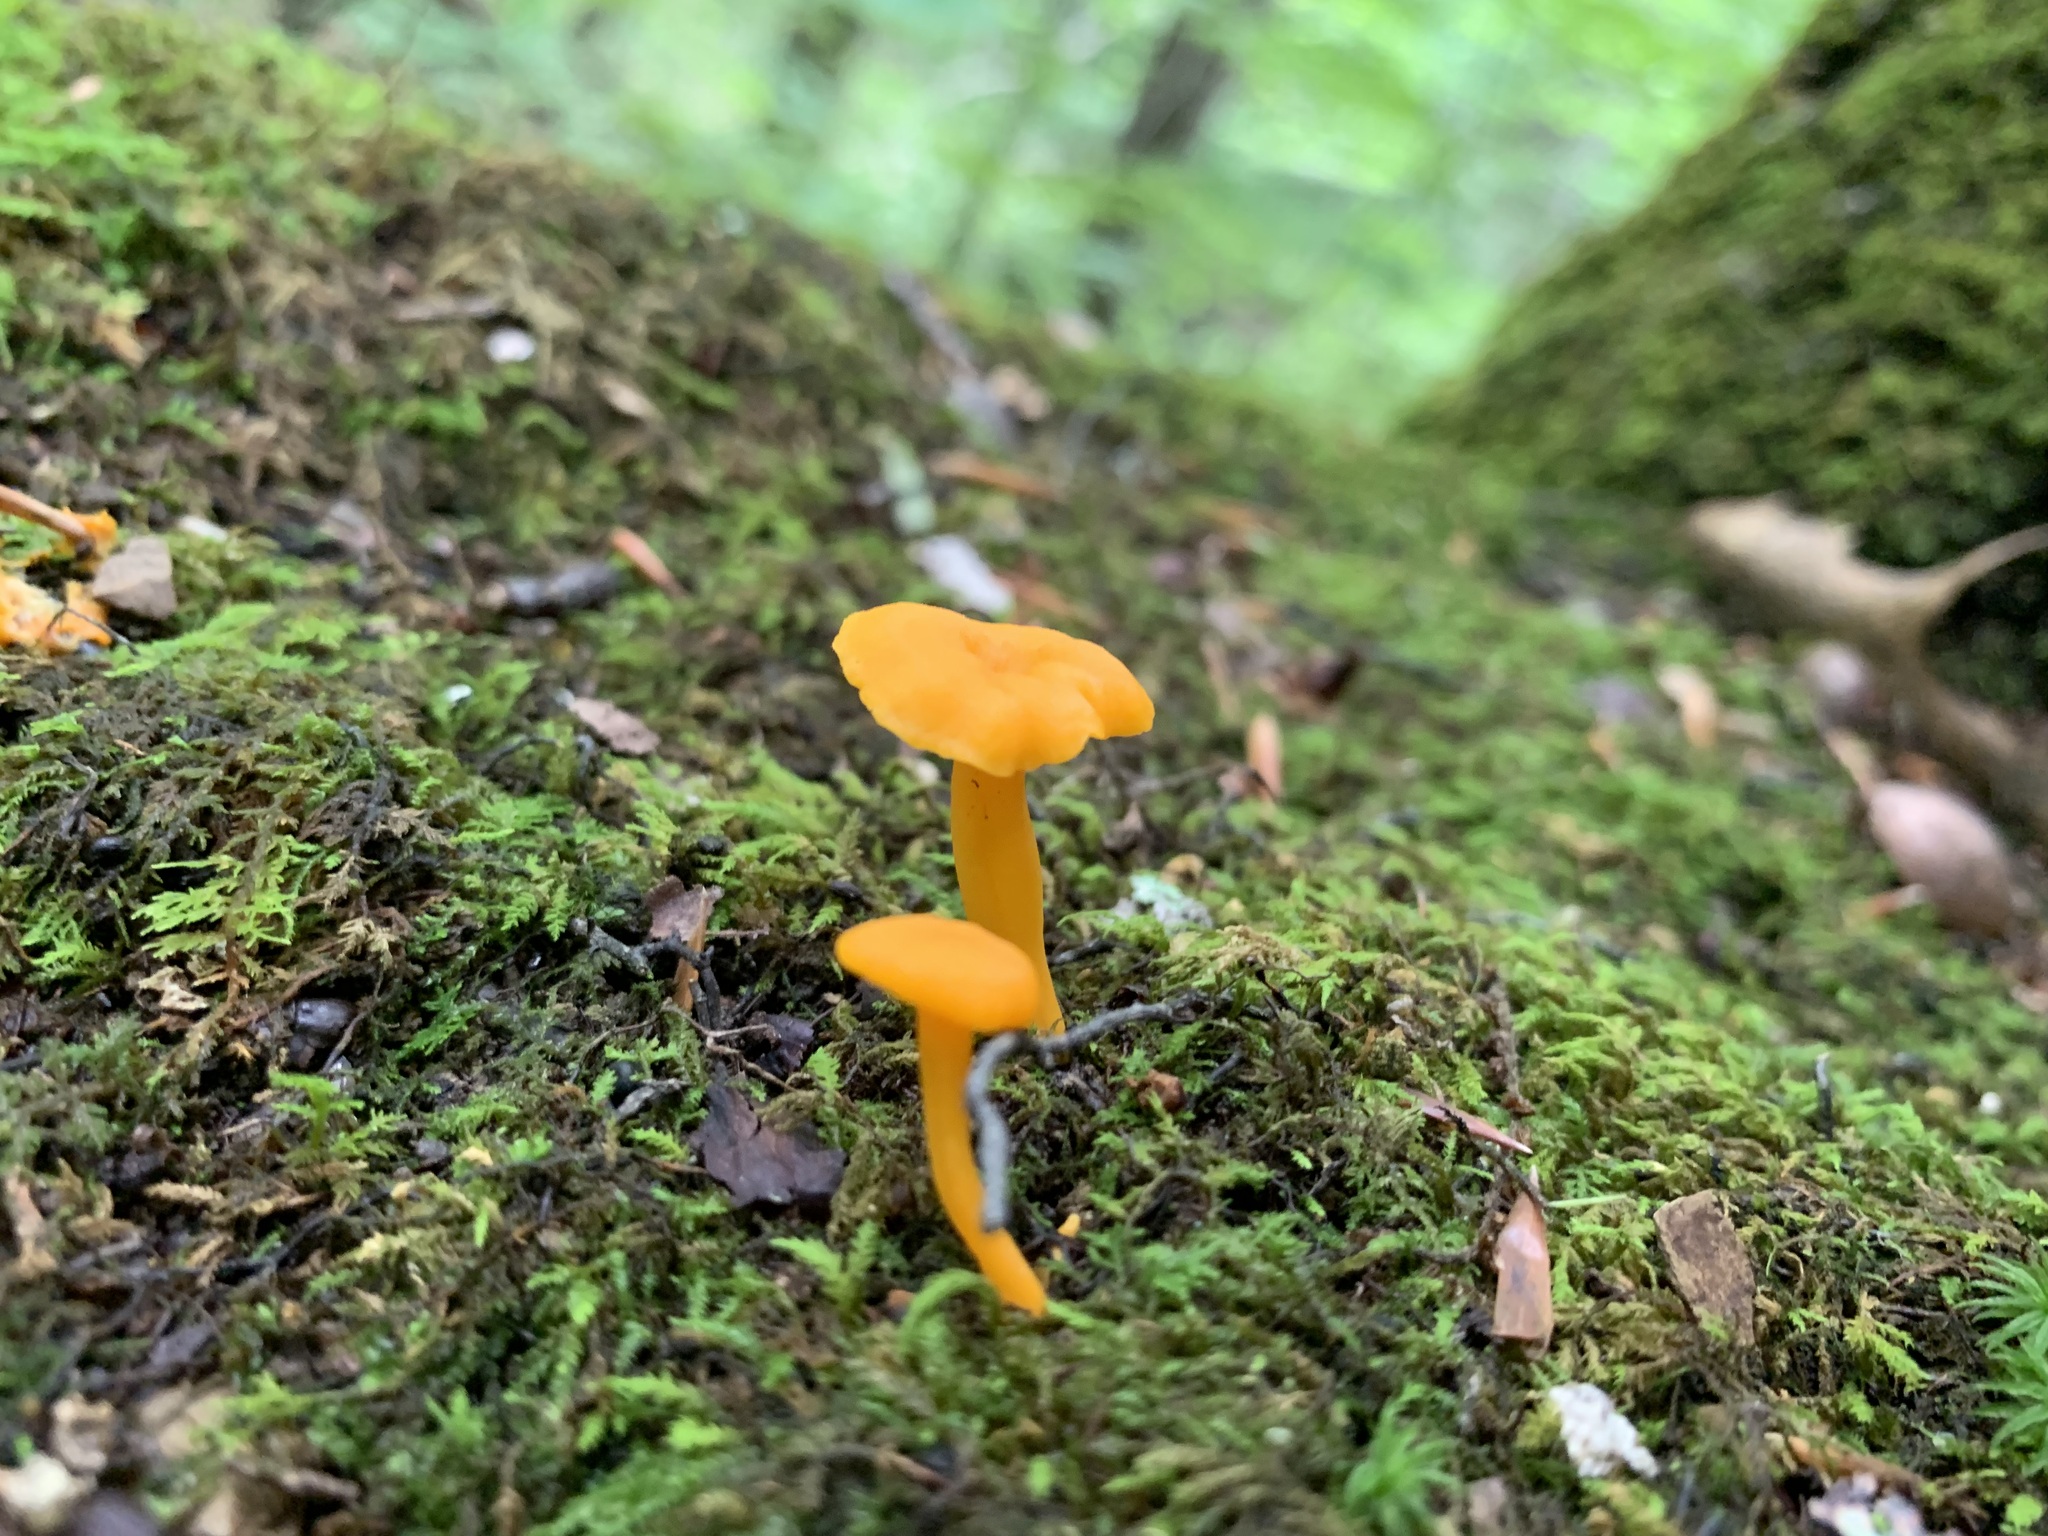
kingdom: Fungi
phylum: Basidiomycota
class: Agaricomycetes
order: Cantharellales
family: Hydnaceae
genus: Cantharellus
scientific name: Cantharellus minor
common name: Small chanterelle
